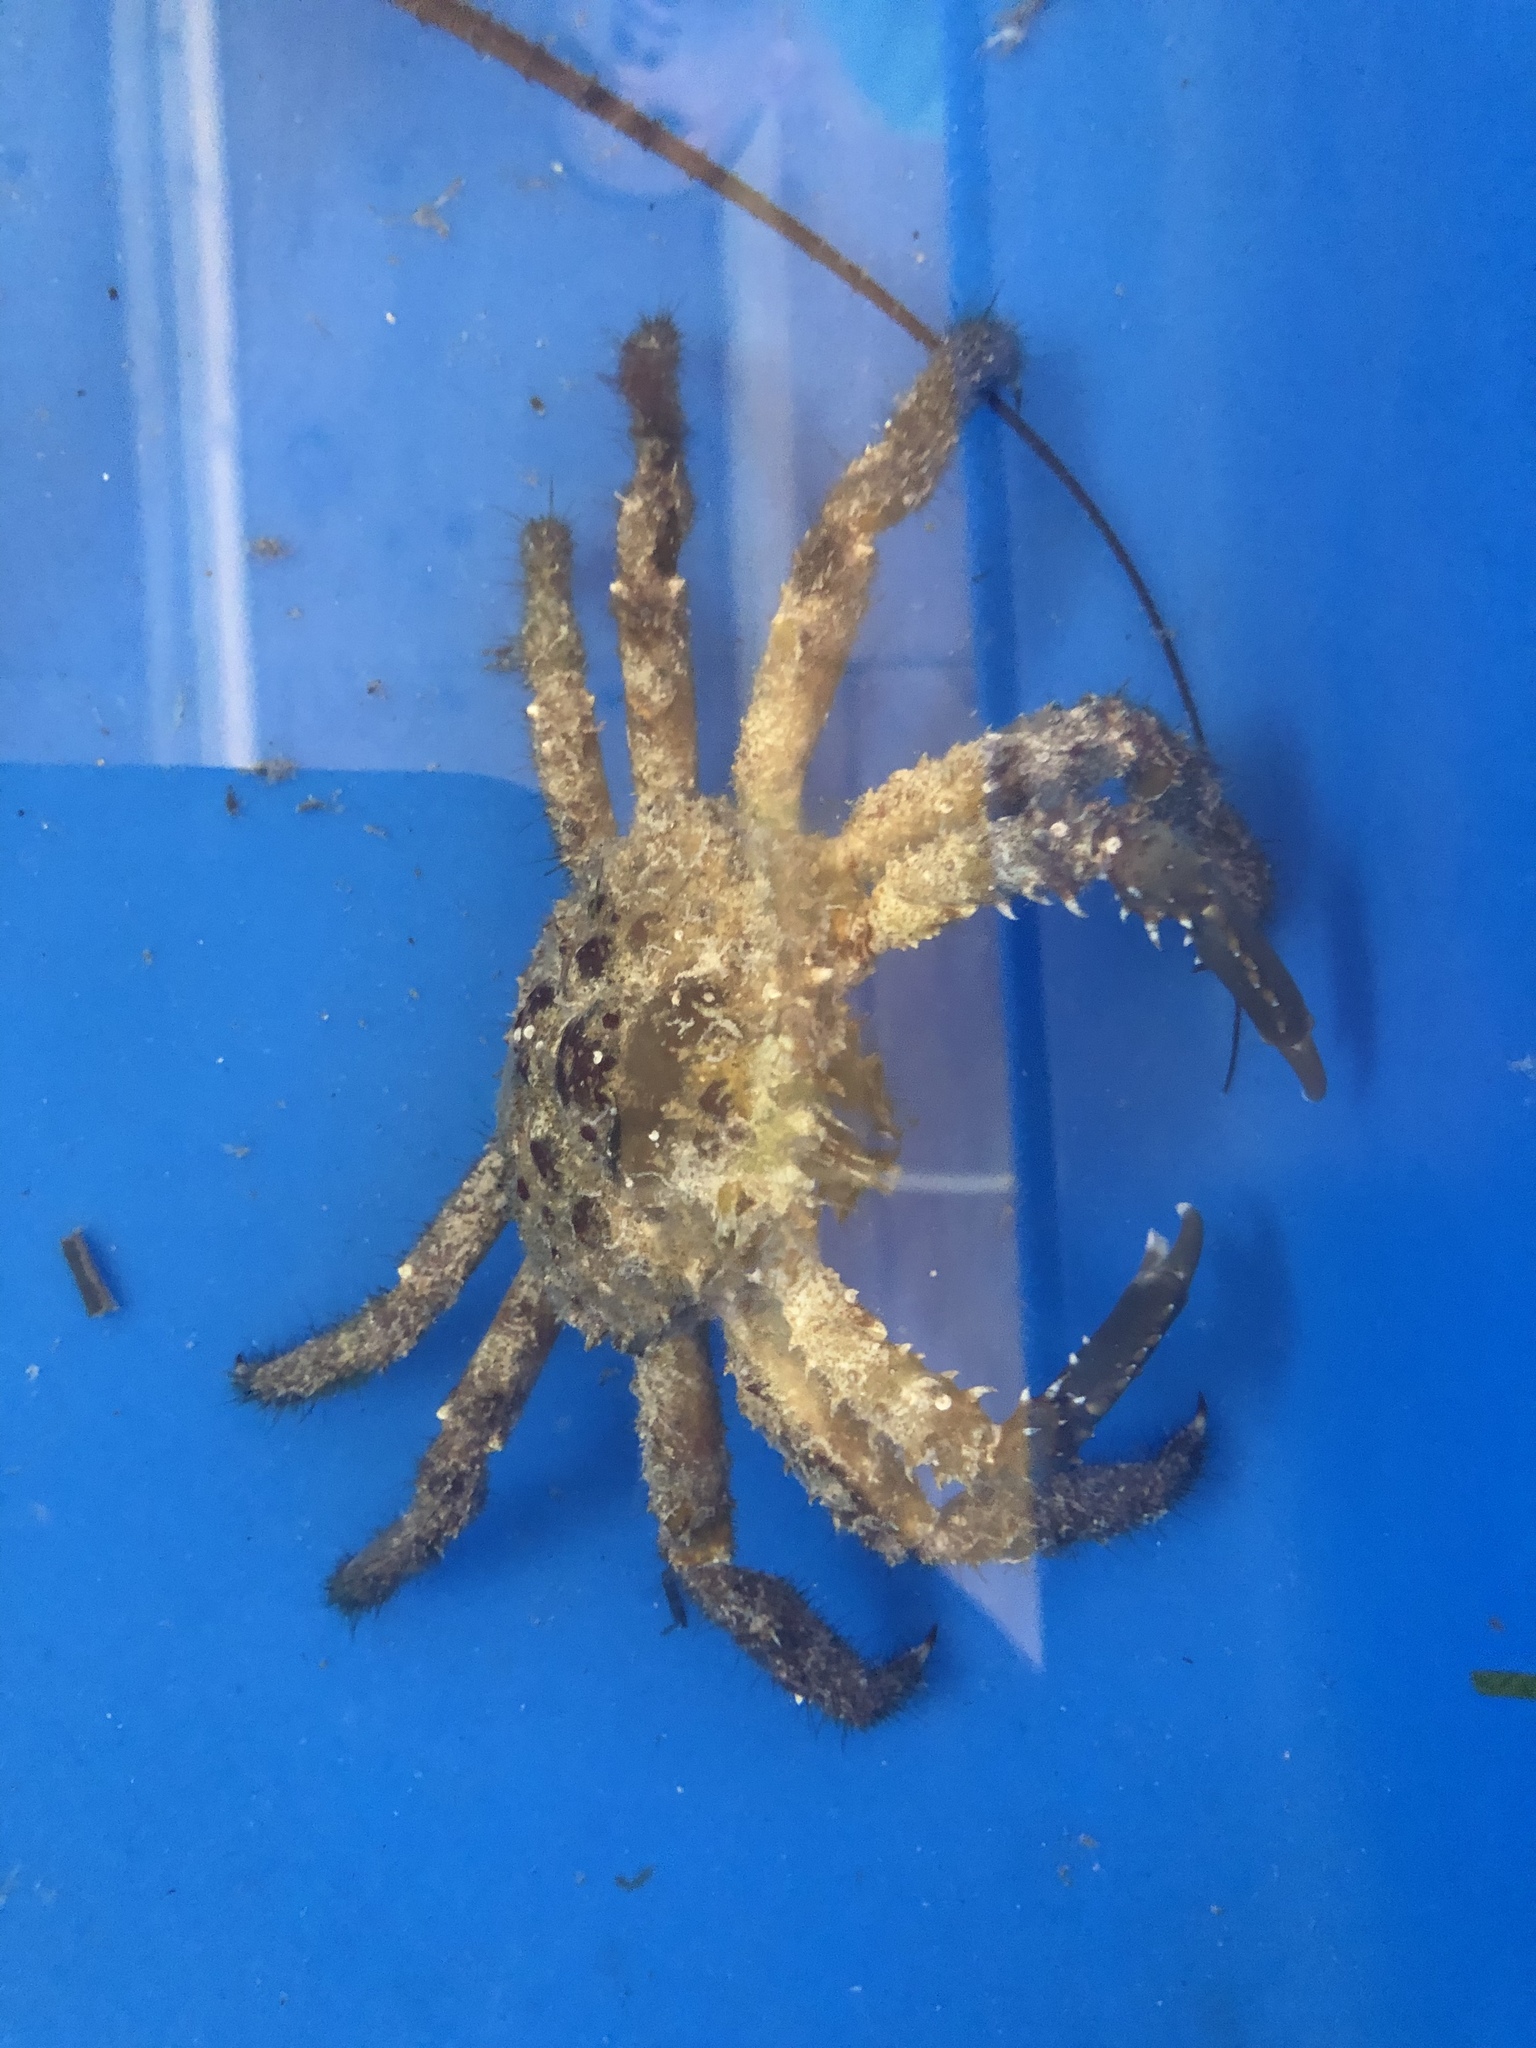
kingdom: Animalia
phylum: Arthropoda
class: Malacostraca
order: Decapoda
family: Mithracidae
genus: Amphithrax
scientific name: Amphithrax pilosus
